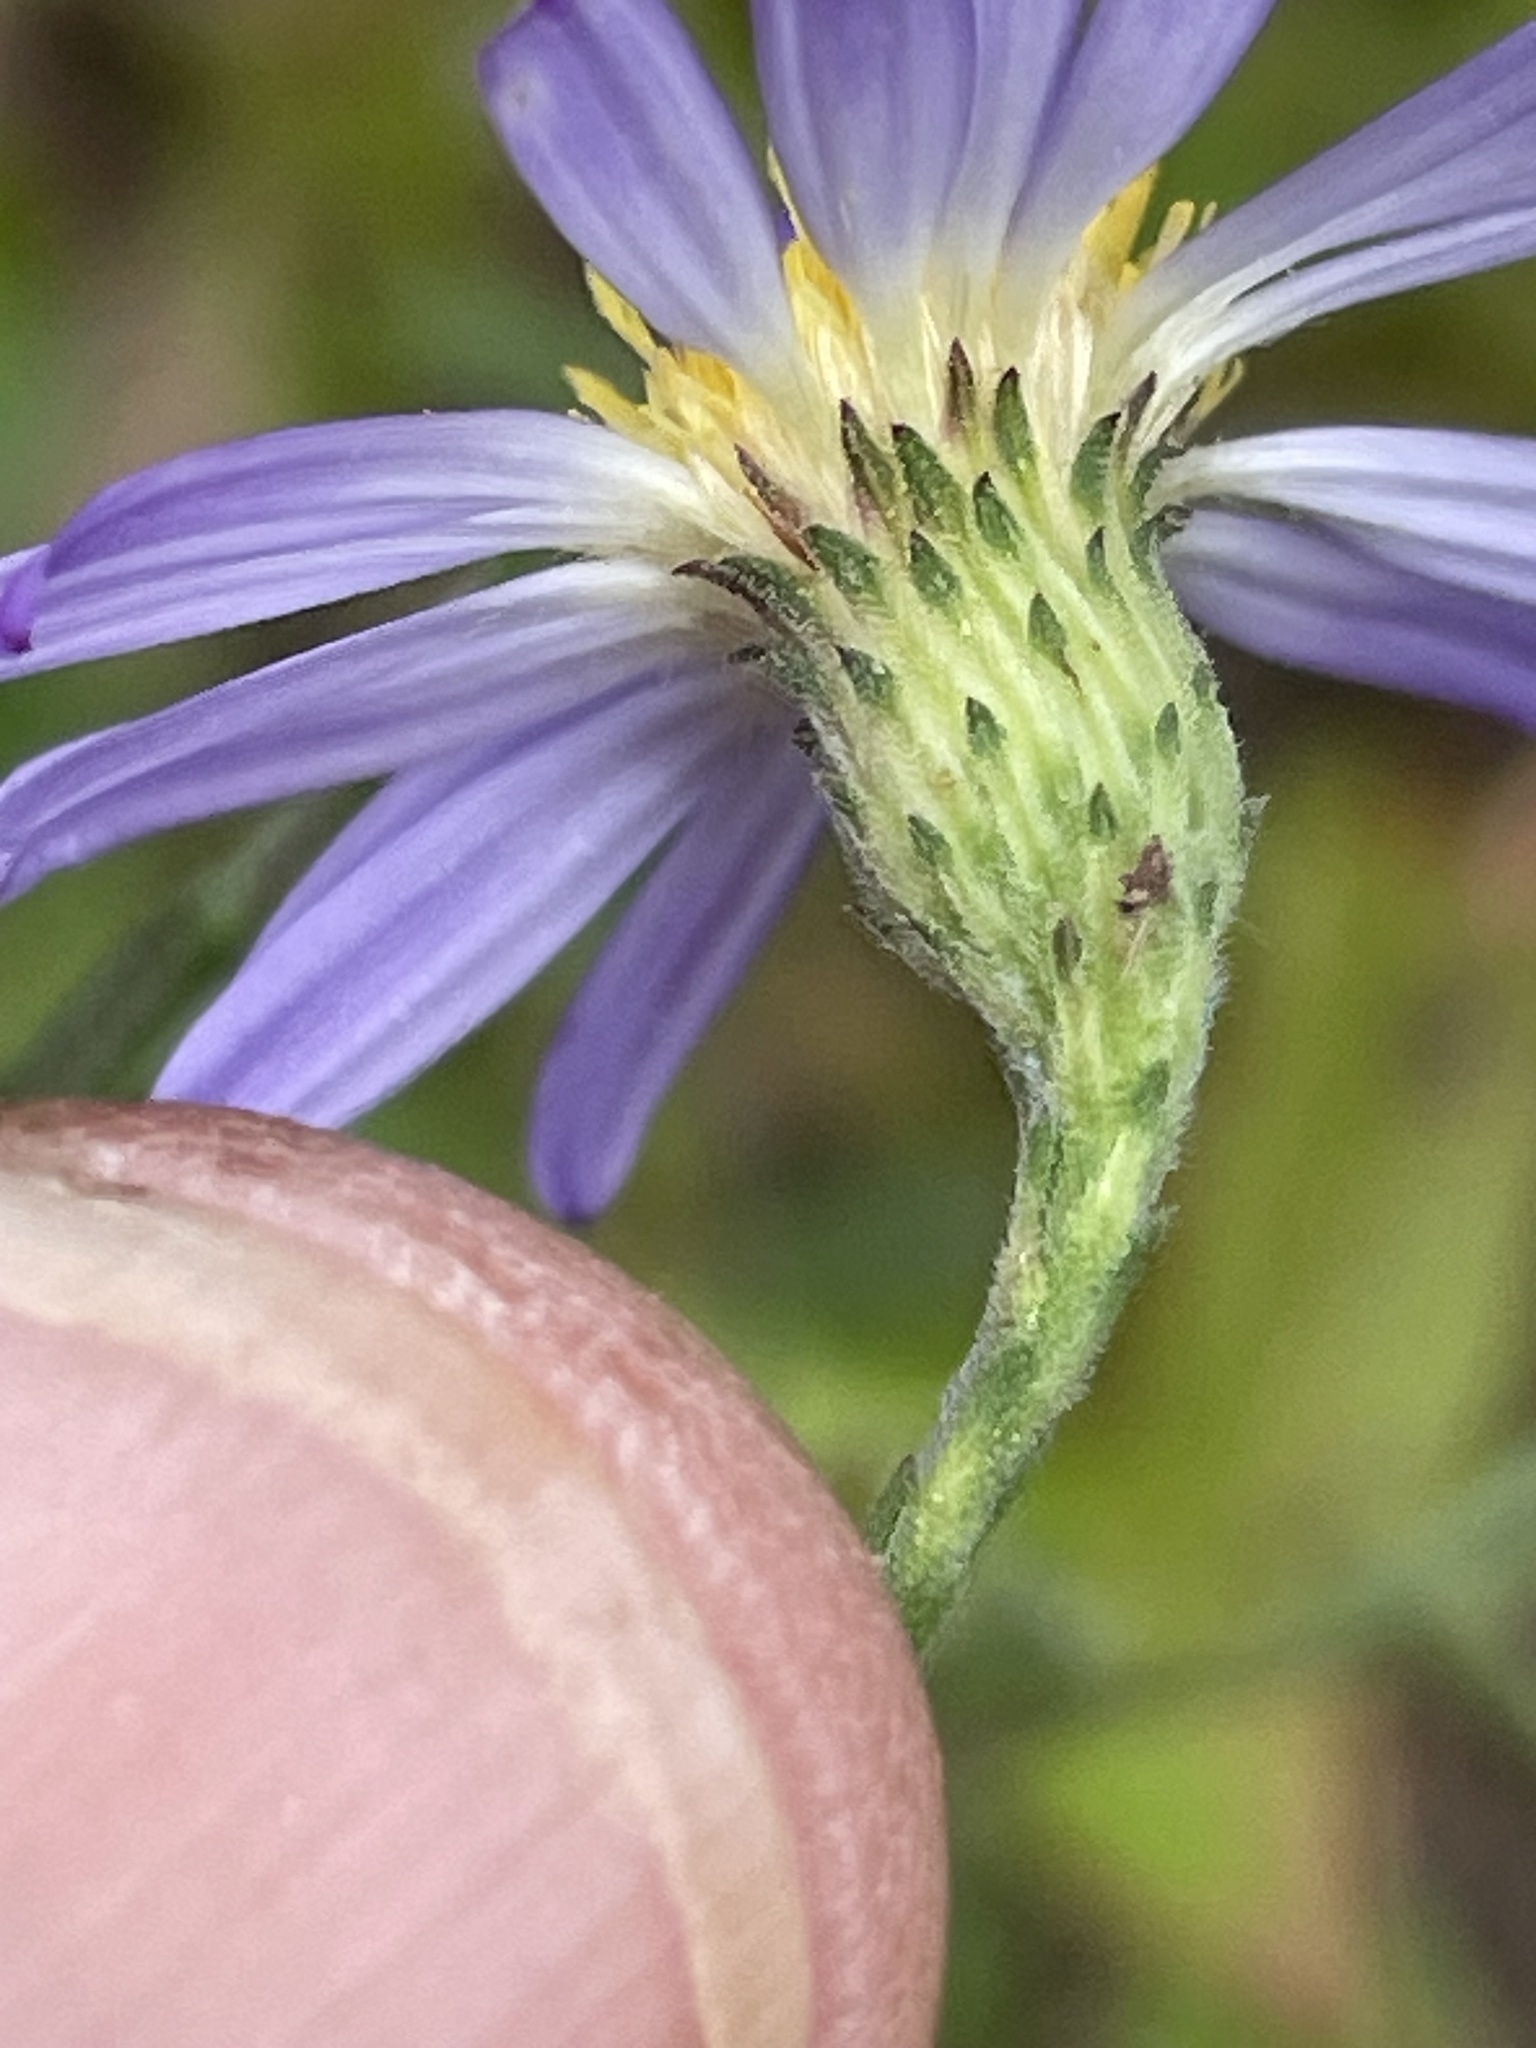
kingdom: Plantae
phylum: Tracheophyta
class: Magnoliopsida
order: Asterales
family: Asteraceae
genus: Symphyotrichum
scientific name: Symphyotrichum patens
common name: Late purple aster
